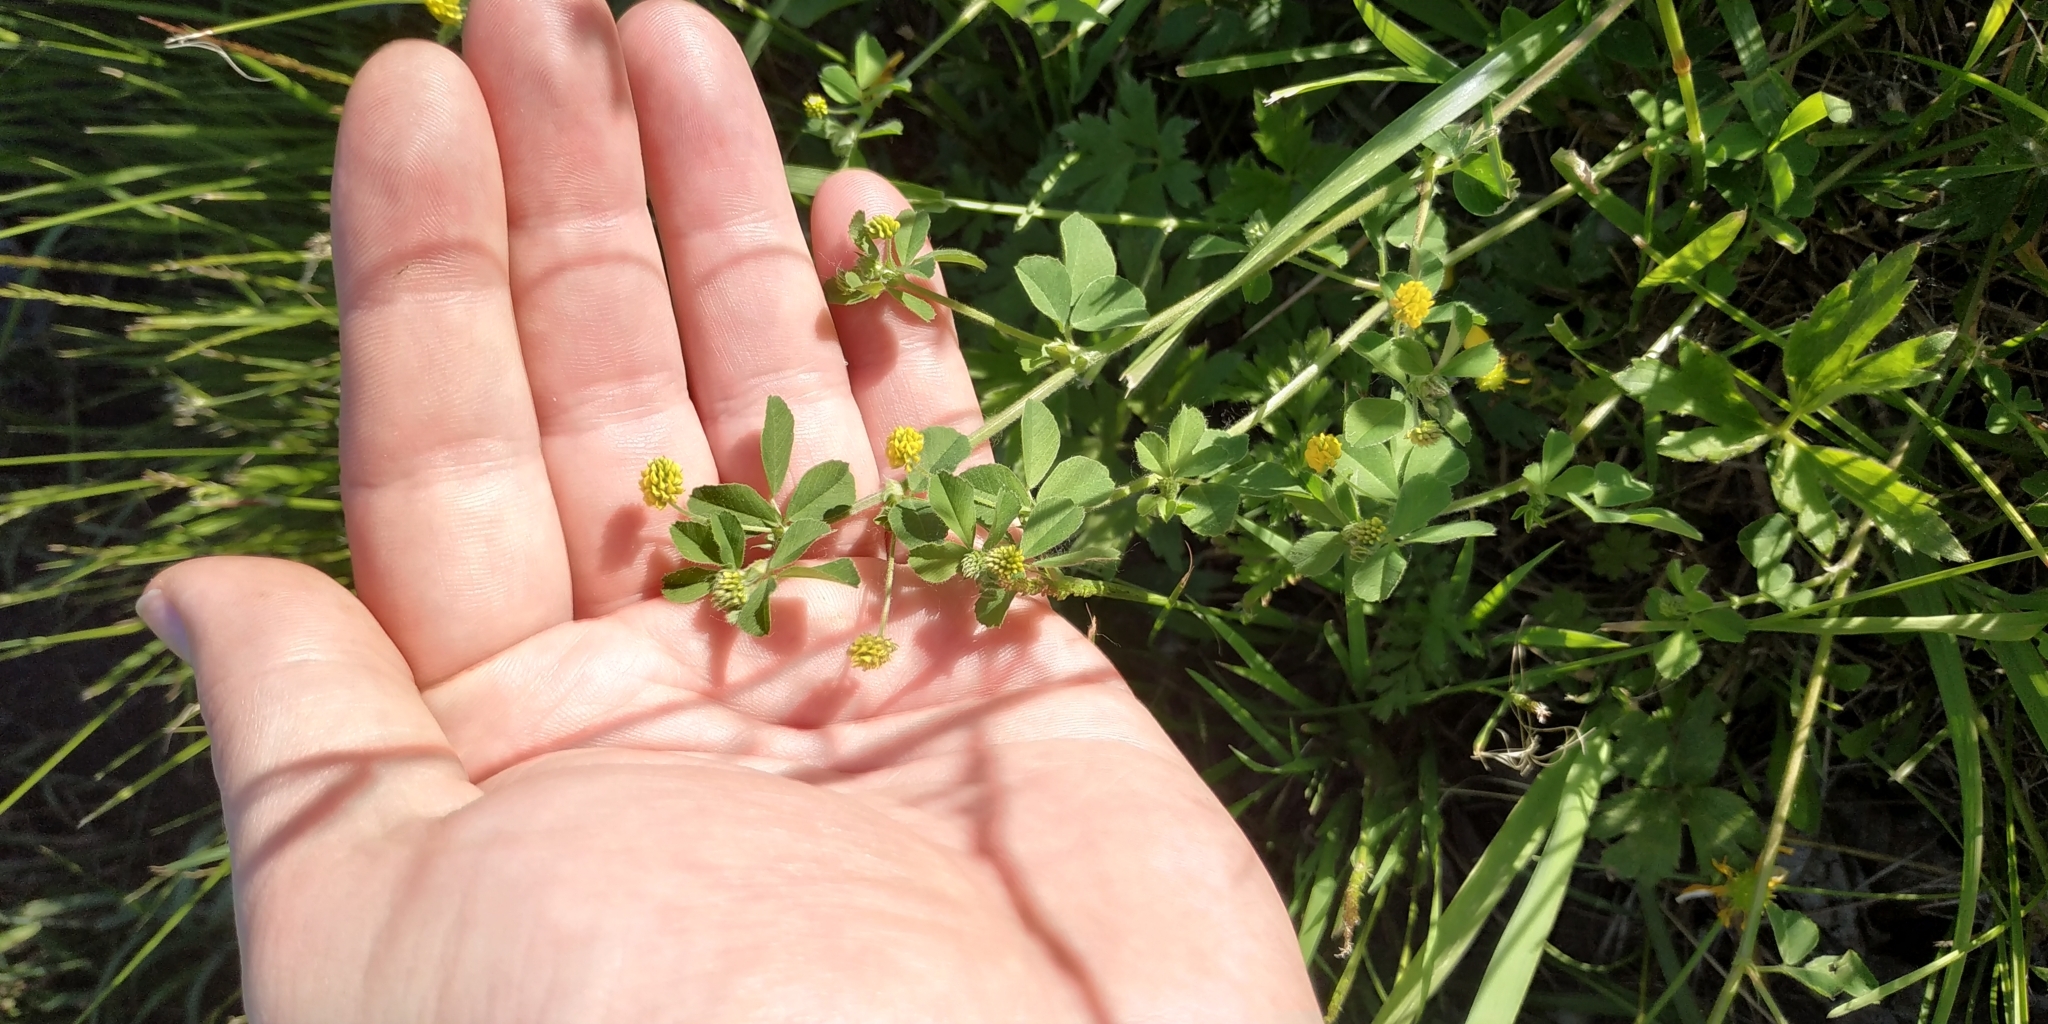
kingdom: Plantae
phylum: Tracheophyta
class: Magnoliopsida
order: Fabales
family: Fabaceae
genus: Medicago
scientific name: Medicago lupulina
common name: Black medick
